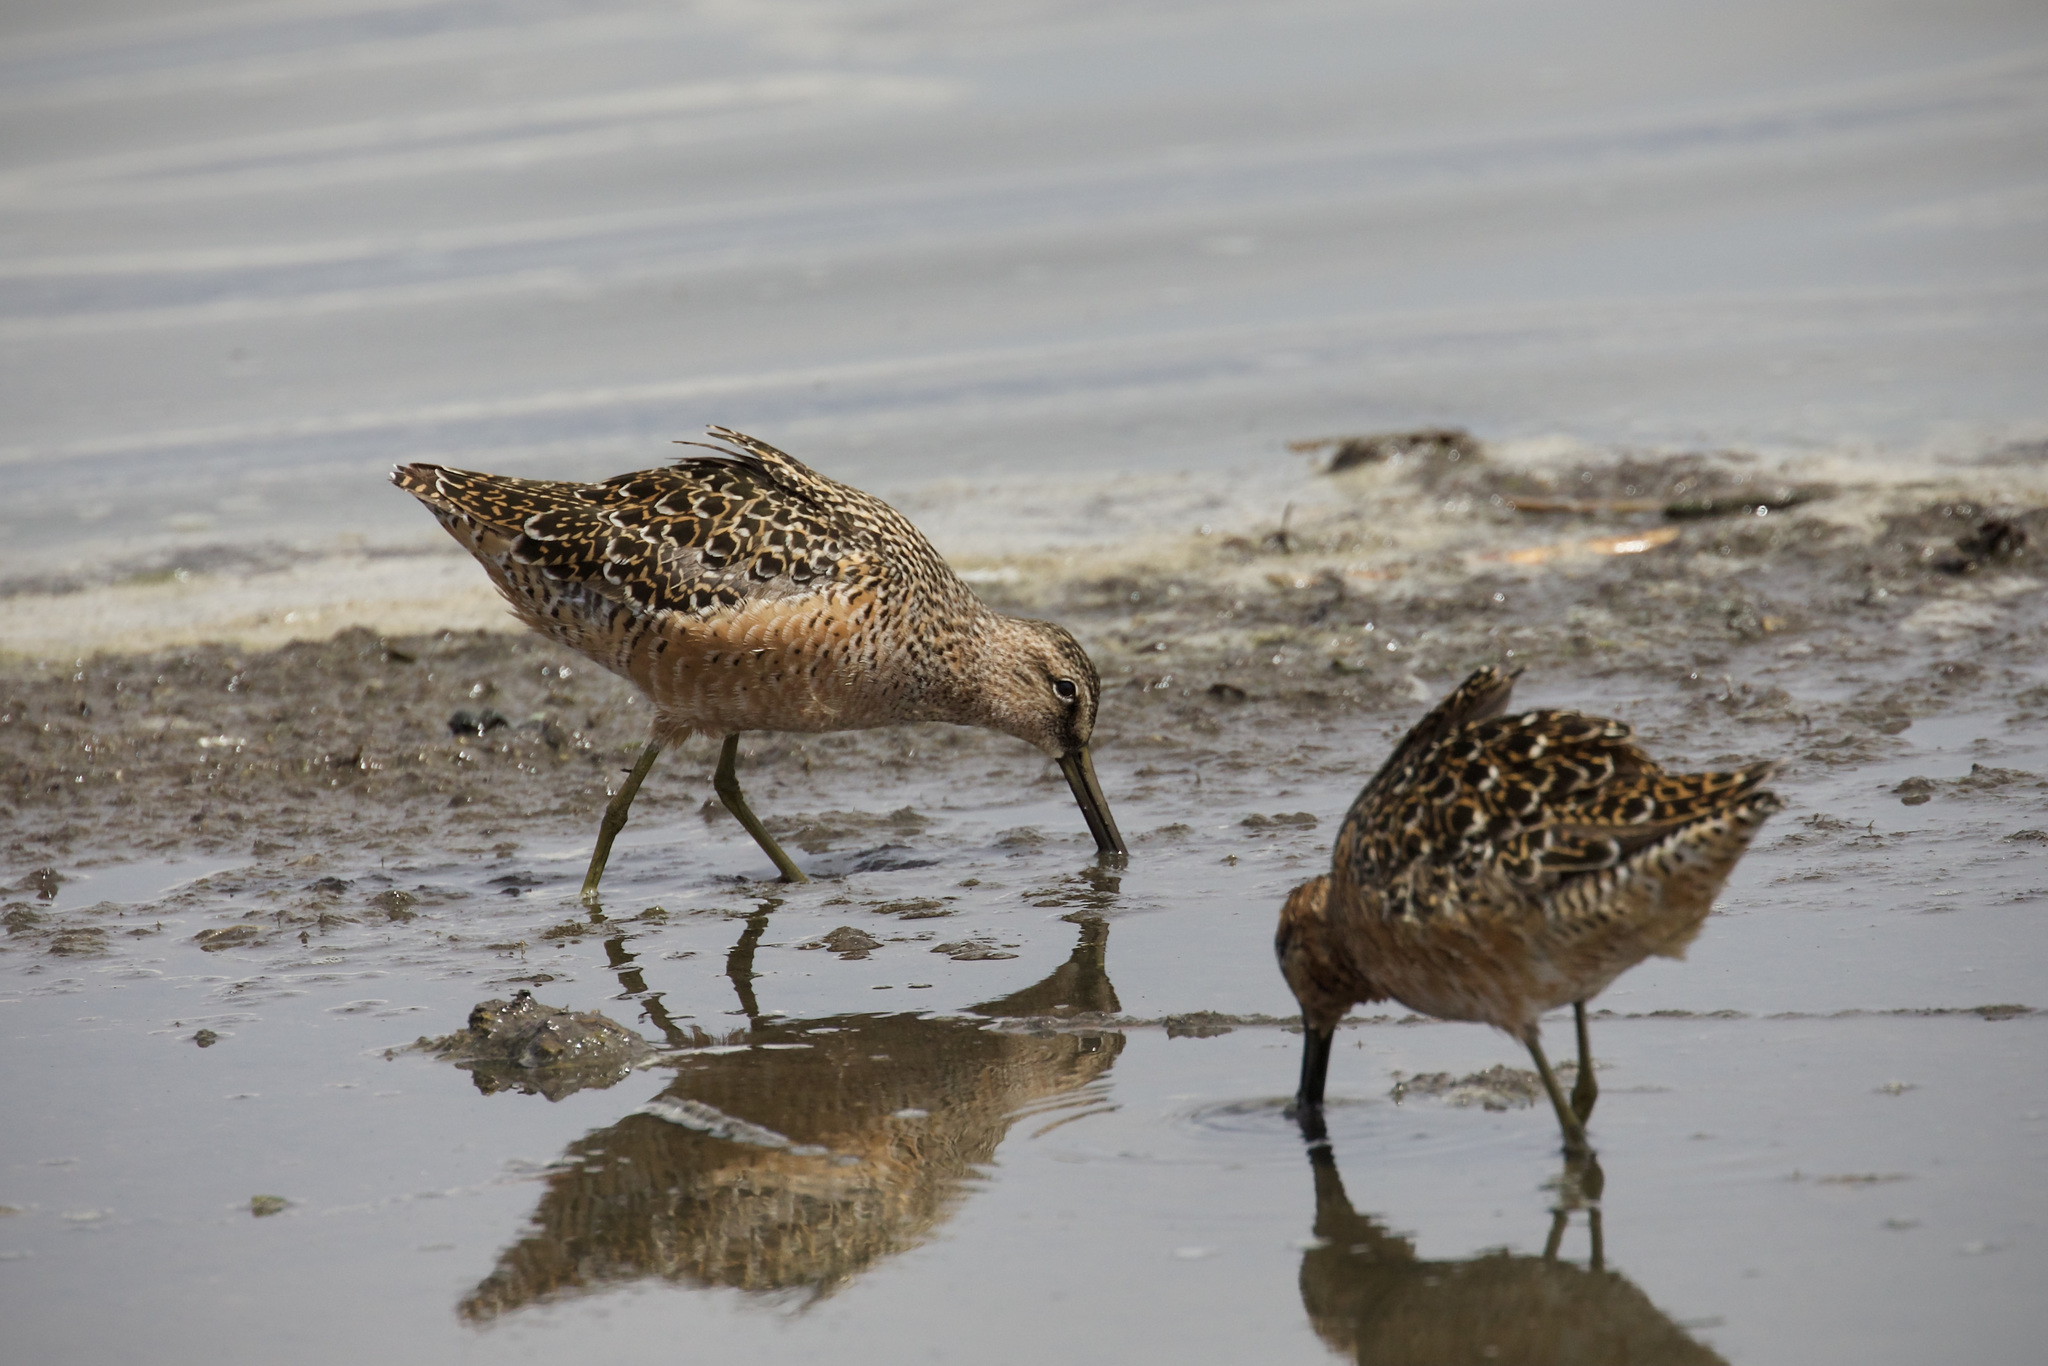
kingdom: Animalia
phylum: Chordata
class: Aves
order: Charadriiformes
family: Scolopacidae
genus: Limnodromus
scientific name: Limnodromus scolopaceus
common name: Long-billed dowitcher
